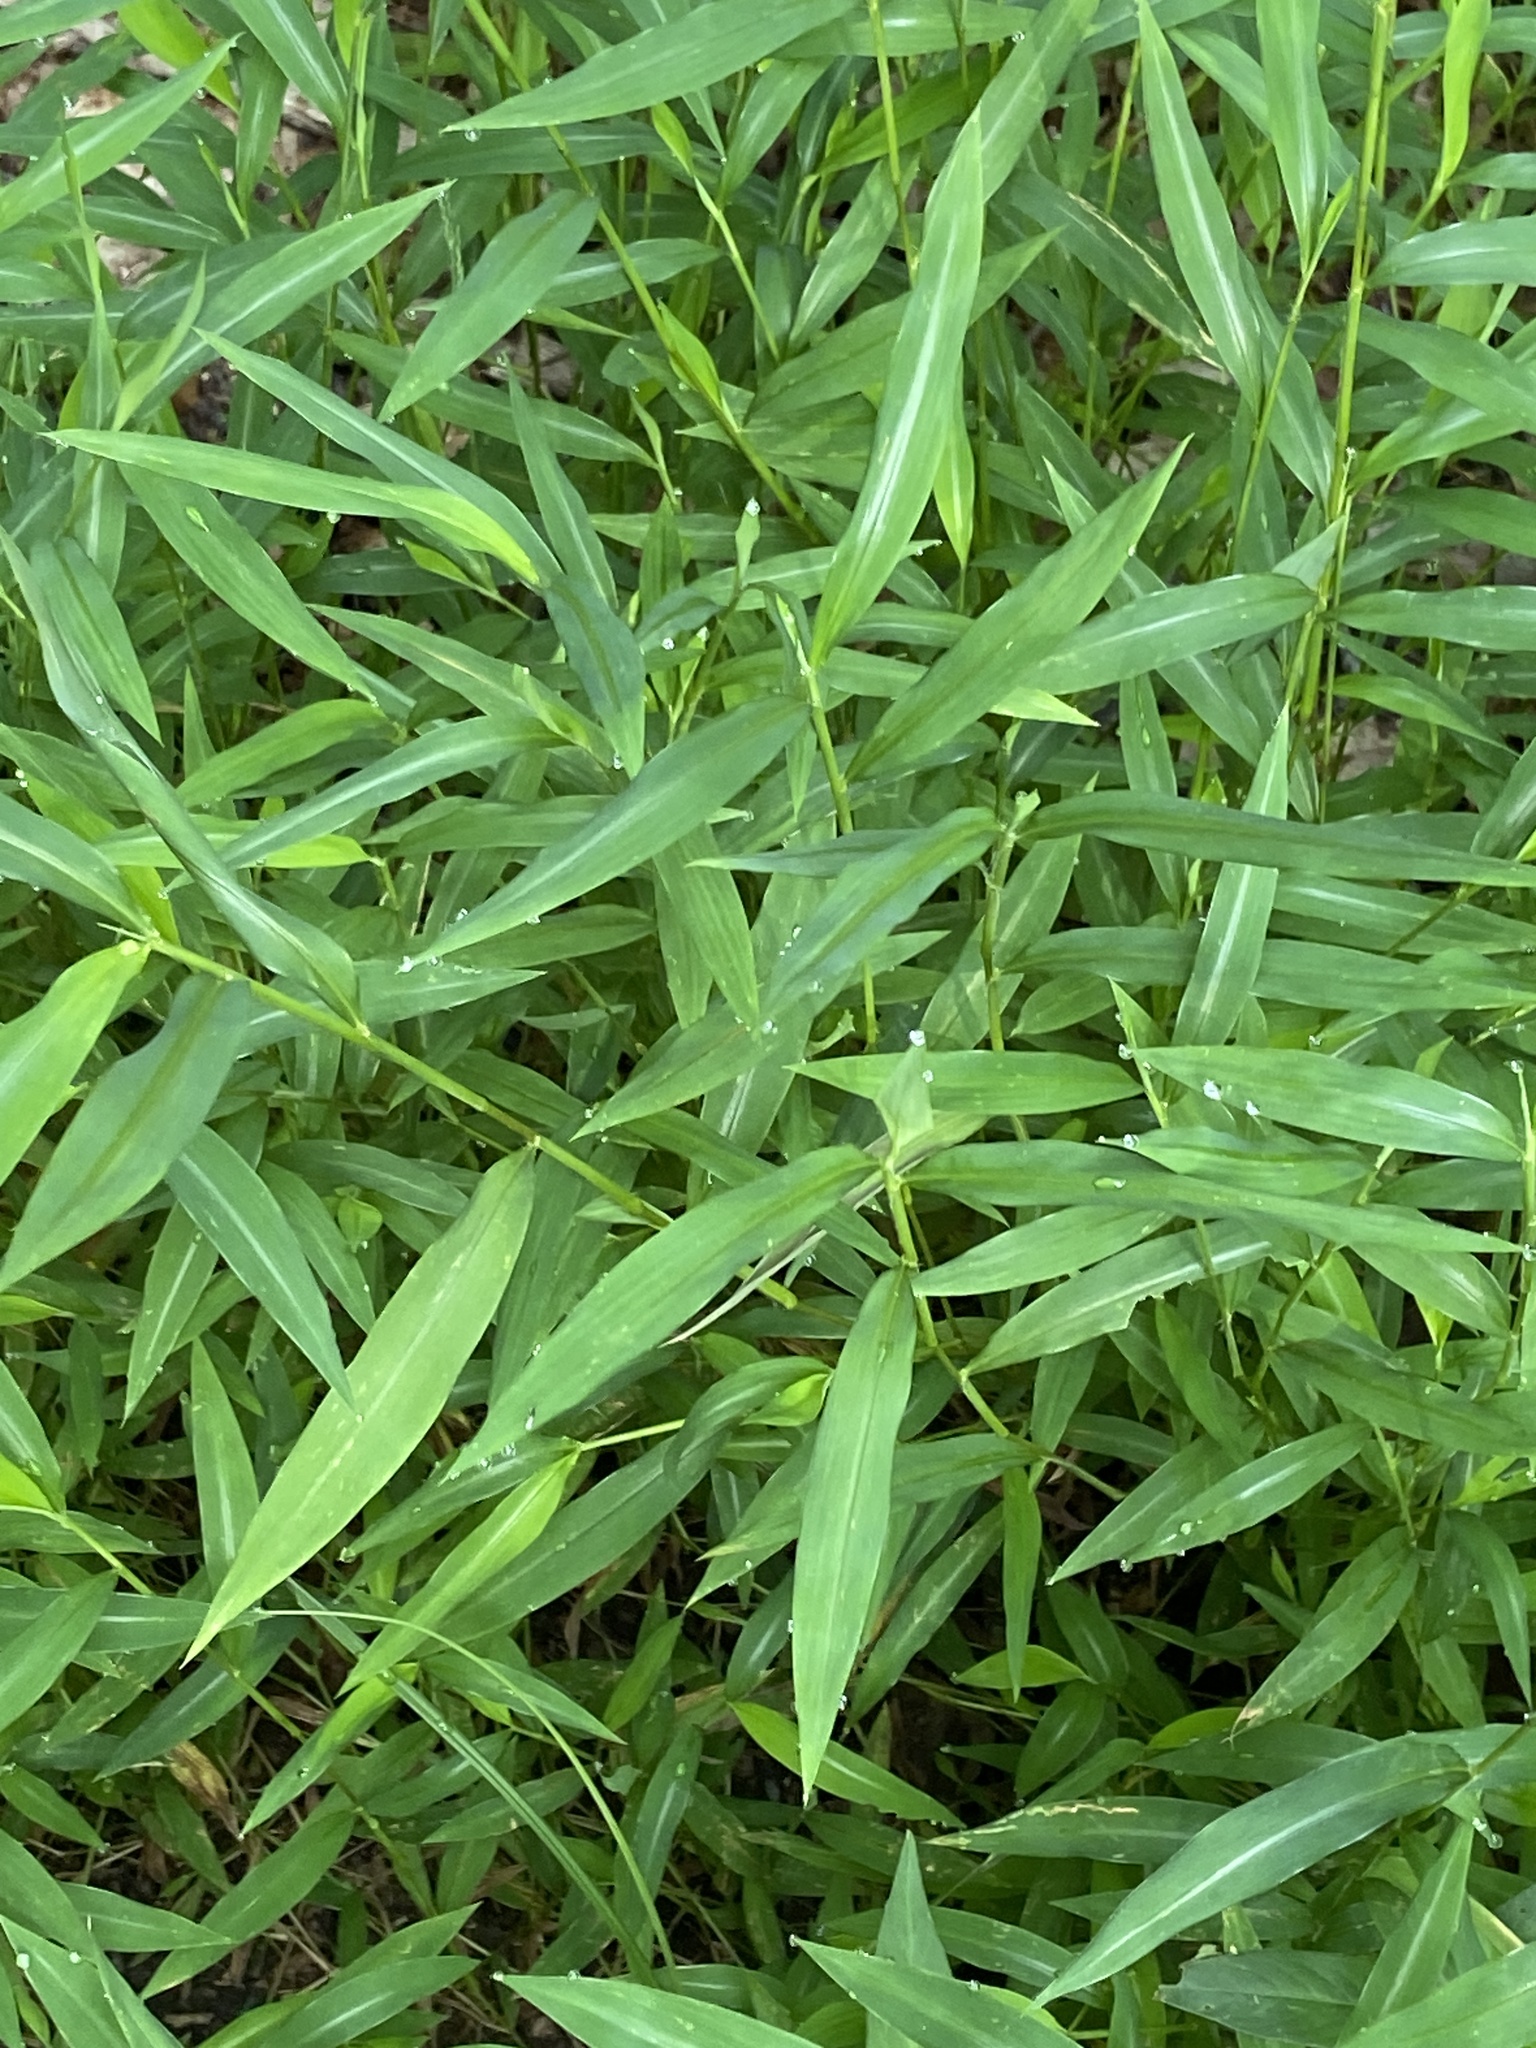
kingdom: Plantae
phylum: Tracheophyta
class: Liliopsida
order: Poales
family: Poaceae
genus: Microstegium
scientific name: Microstegium vimineum
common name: Japanese stiltgrass
